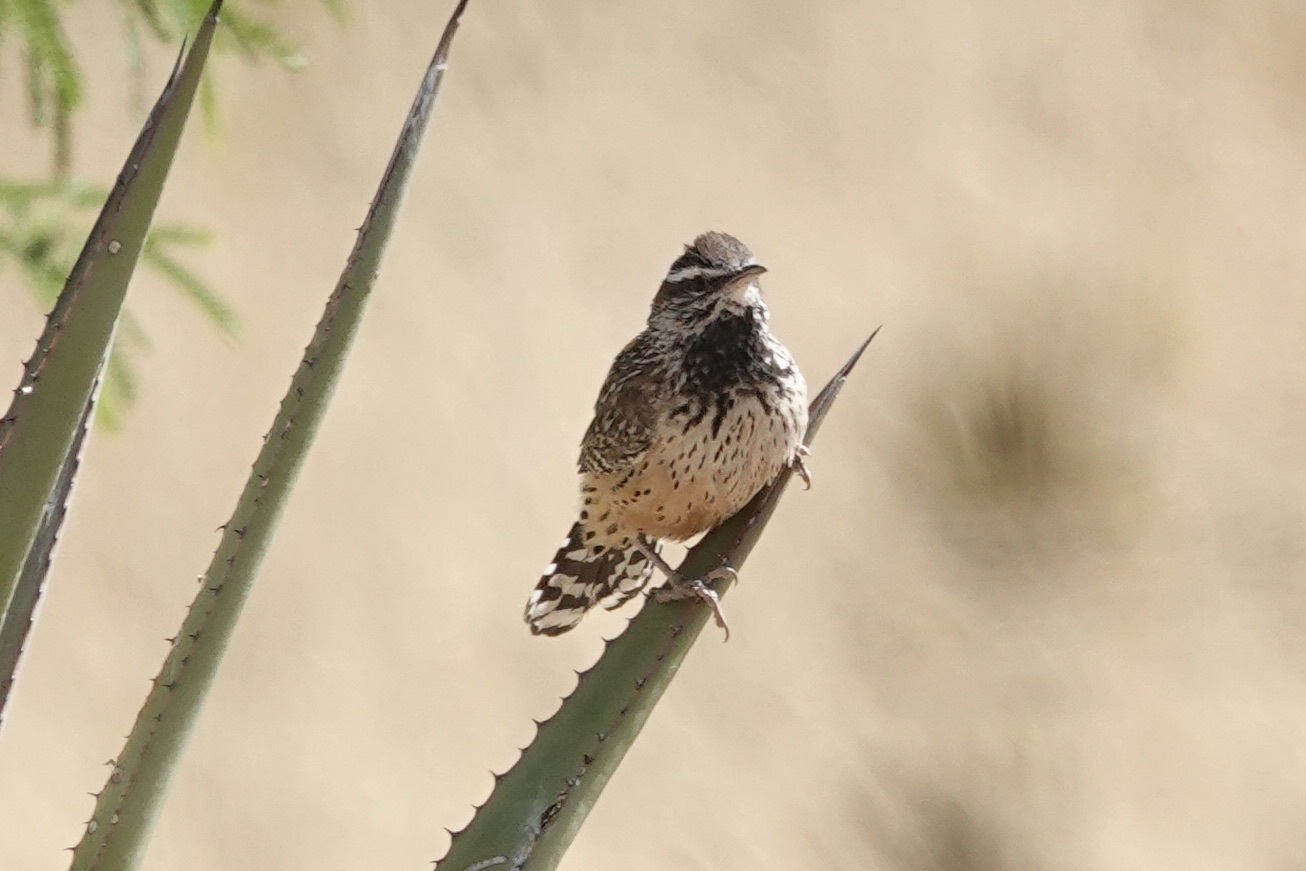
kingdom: Animalia
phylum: Chordata
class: Aves
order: Passeriformes
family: Troglodytidae
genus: Campylorhynchus
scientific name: Campylorhynchus brunneicapillus
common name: Cactus wren
